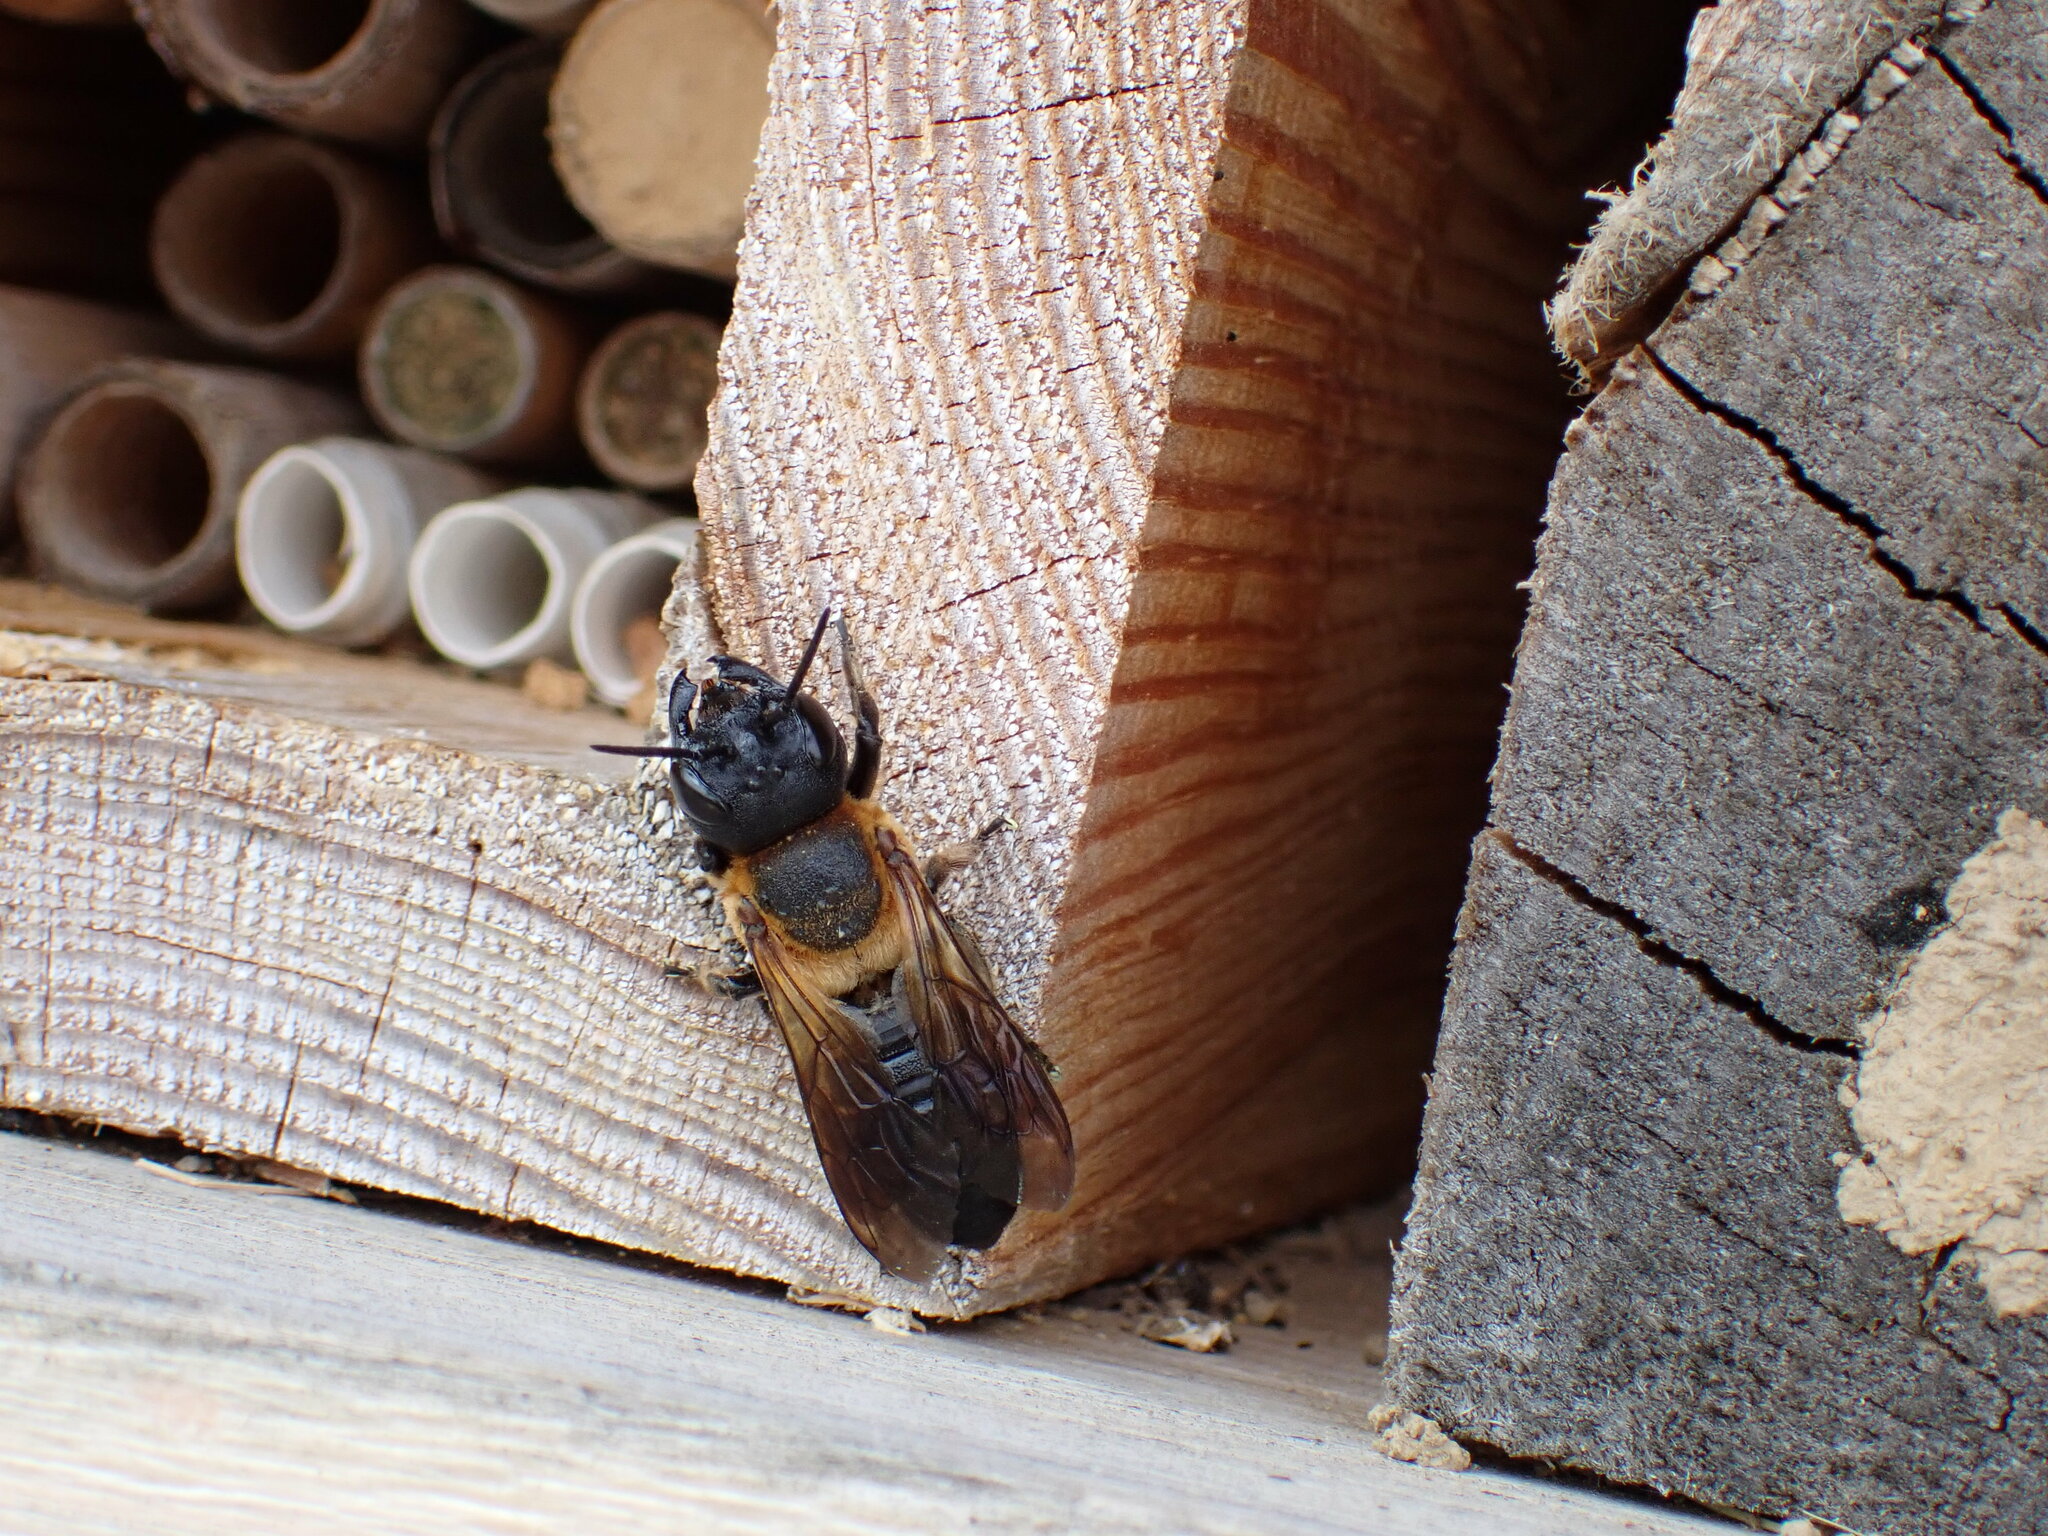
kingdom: Animalia
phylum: Arthropoda
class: Insecta
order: Hymenoptera
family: Megachilidae
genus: Megachile
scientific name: Megachile sculpturalis
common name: Sculptured resin bee
